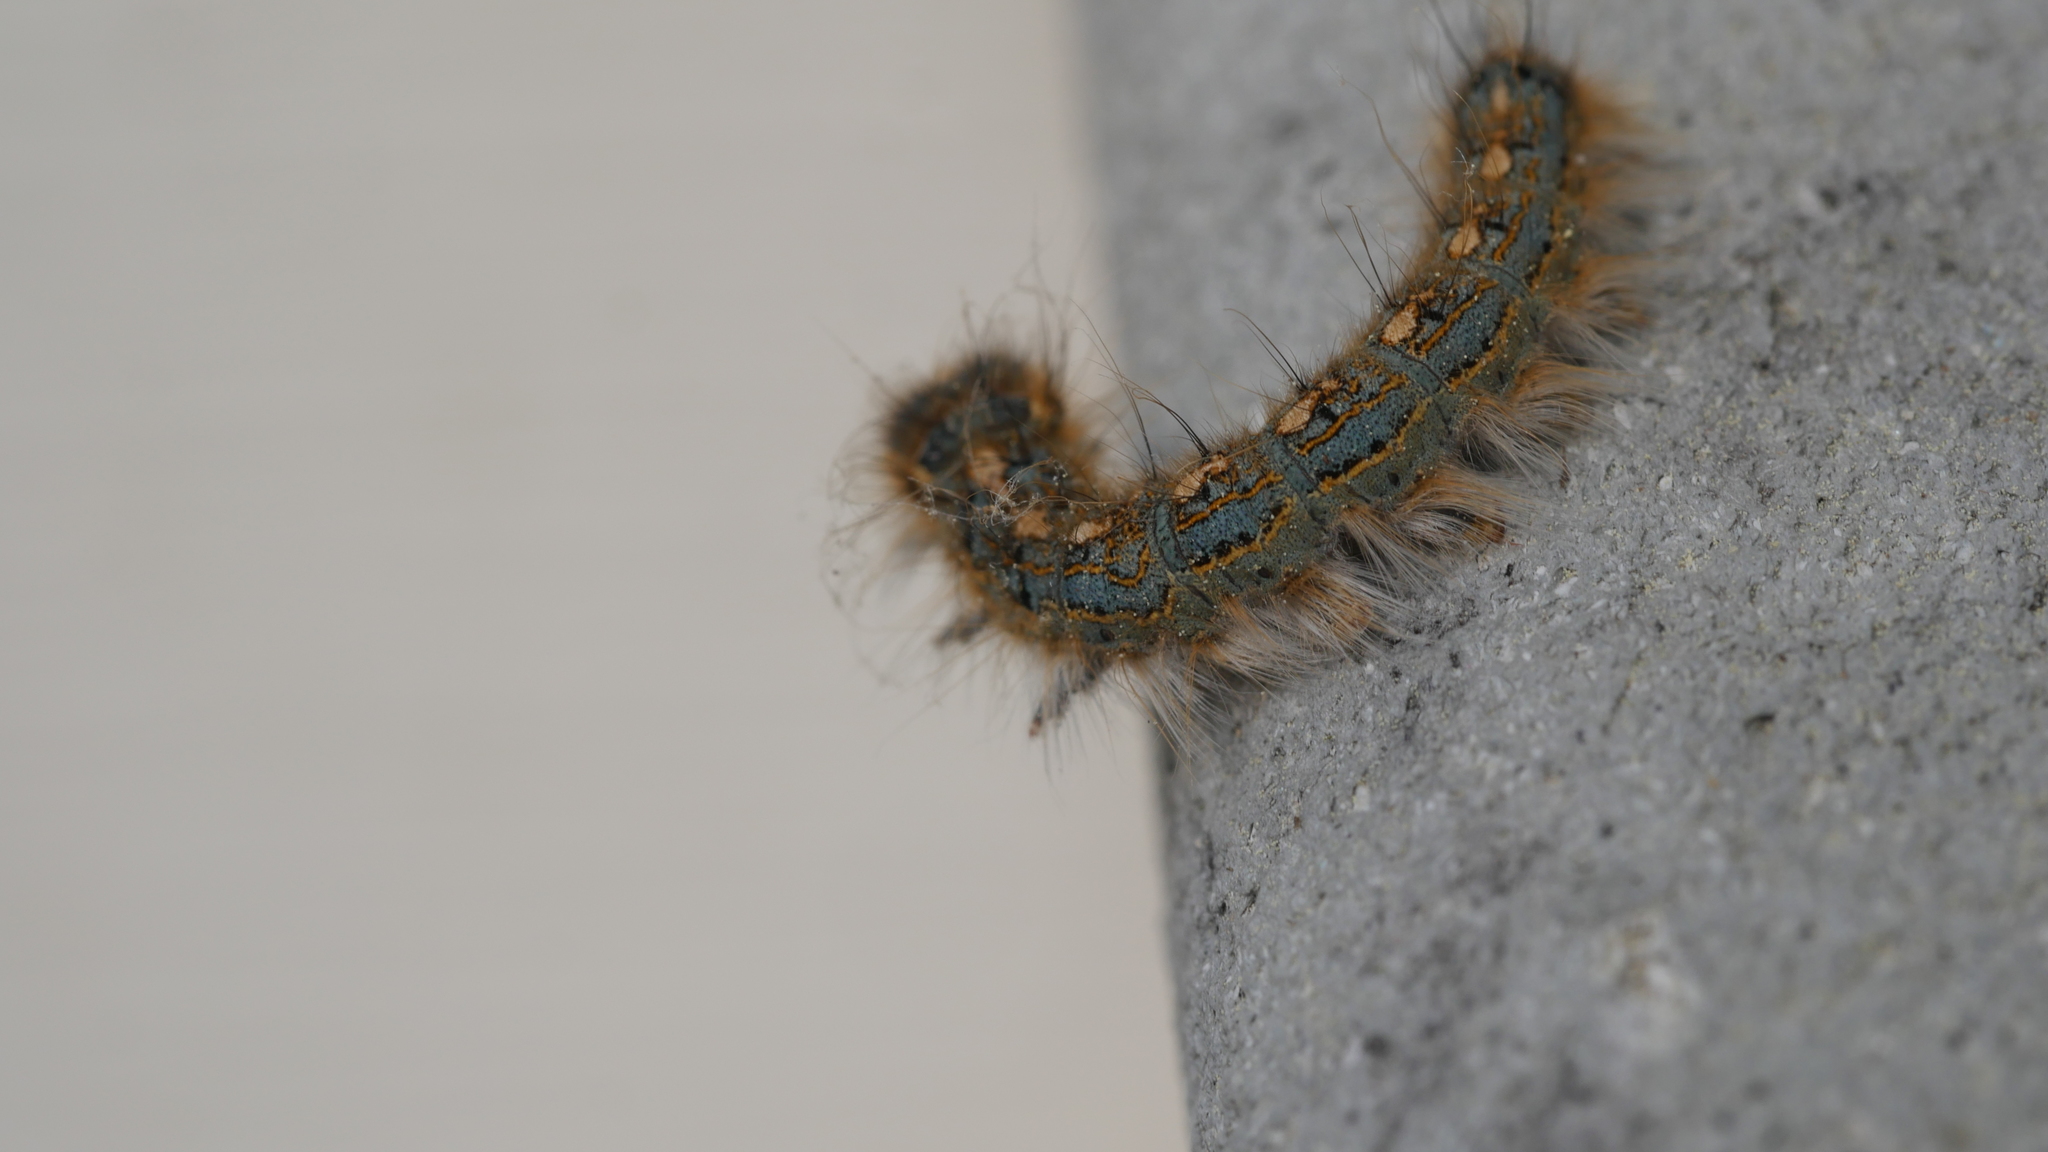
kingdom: Animalia
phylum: Arthropoda
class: Insecta
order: Lepidoptera
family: Lasiocampidae
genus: Malacosoma
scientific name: Malacosoma disstria
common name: Forest tent caterpillar
